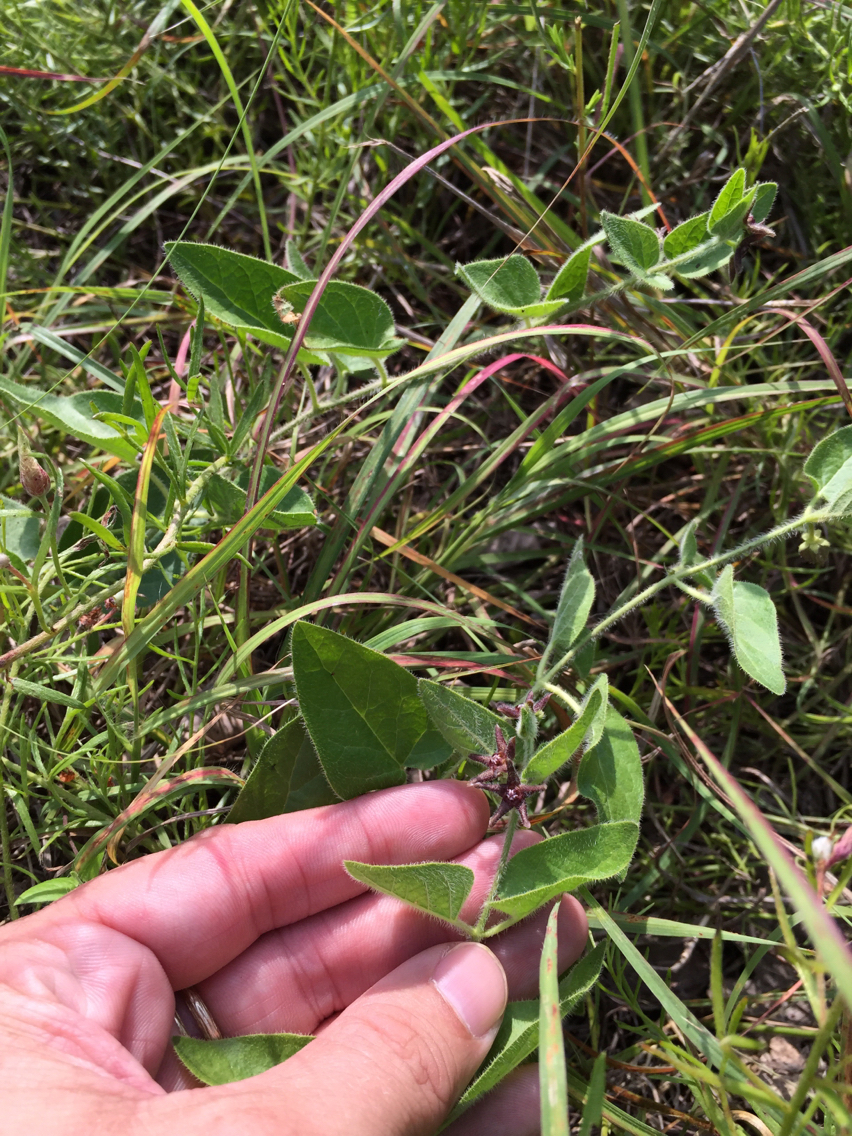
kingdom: Plantae
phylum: Tracheophyta
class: Magnoliopsida
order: Gentianales
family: Apocynaceae
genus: Chthamalia
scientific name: Chthamalia biflora
